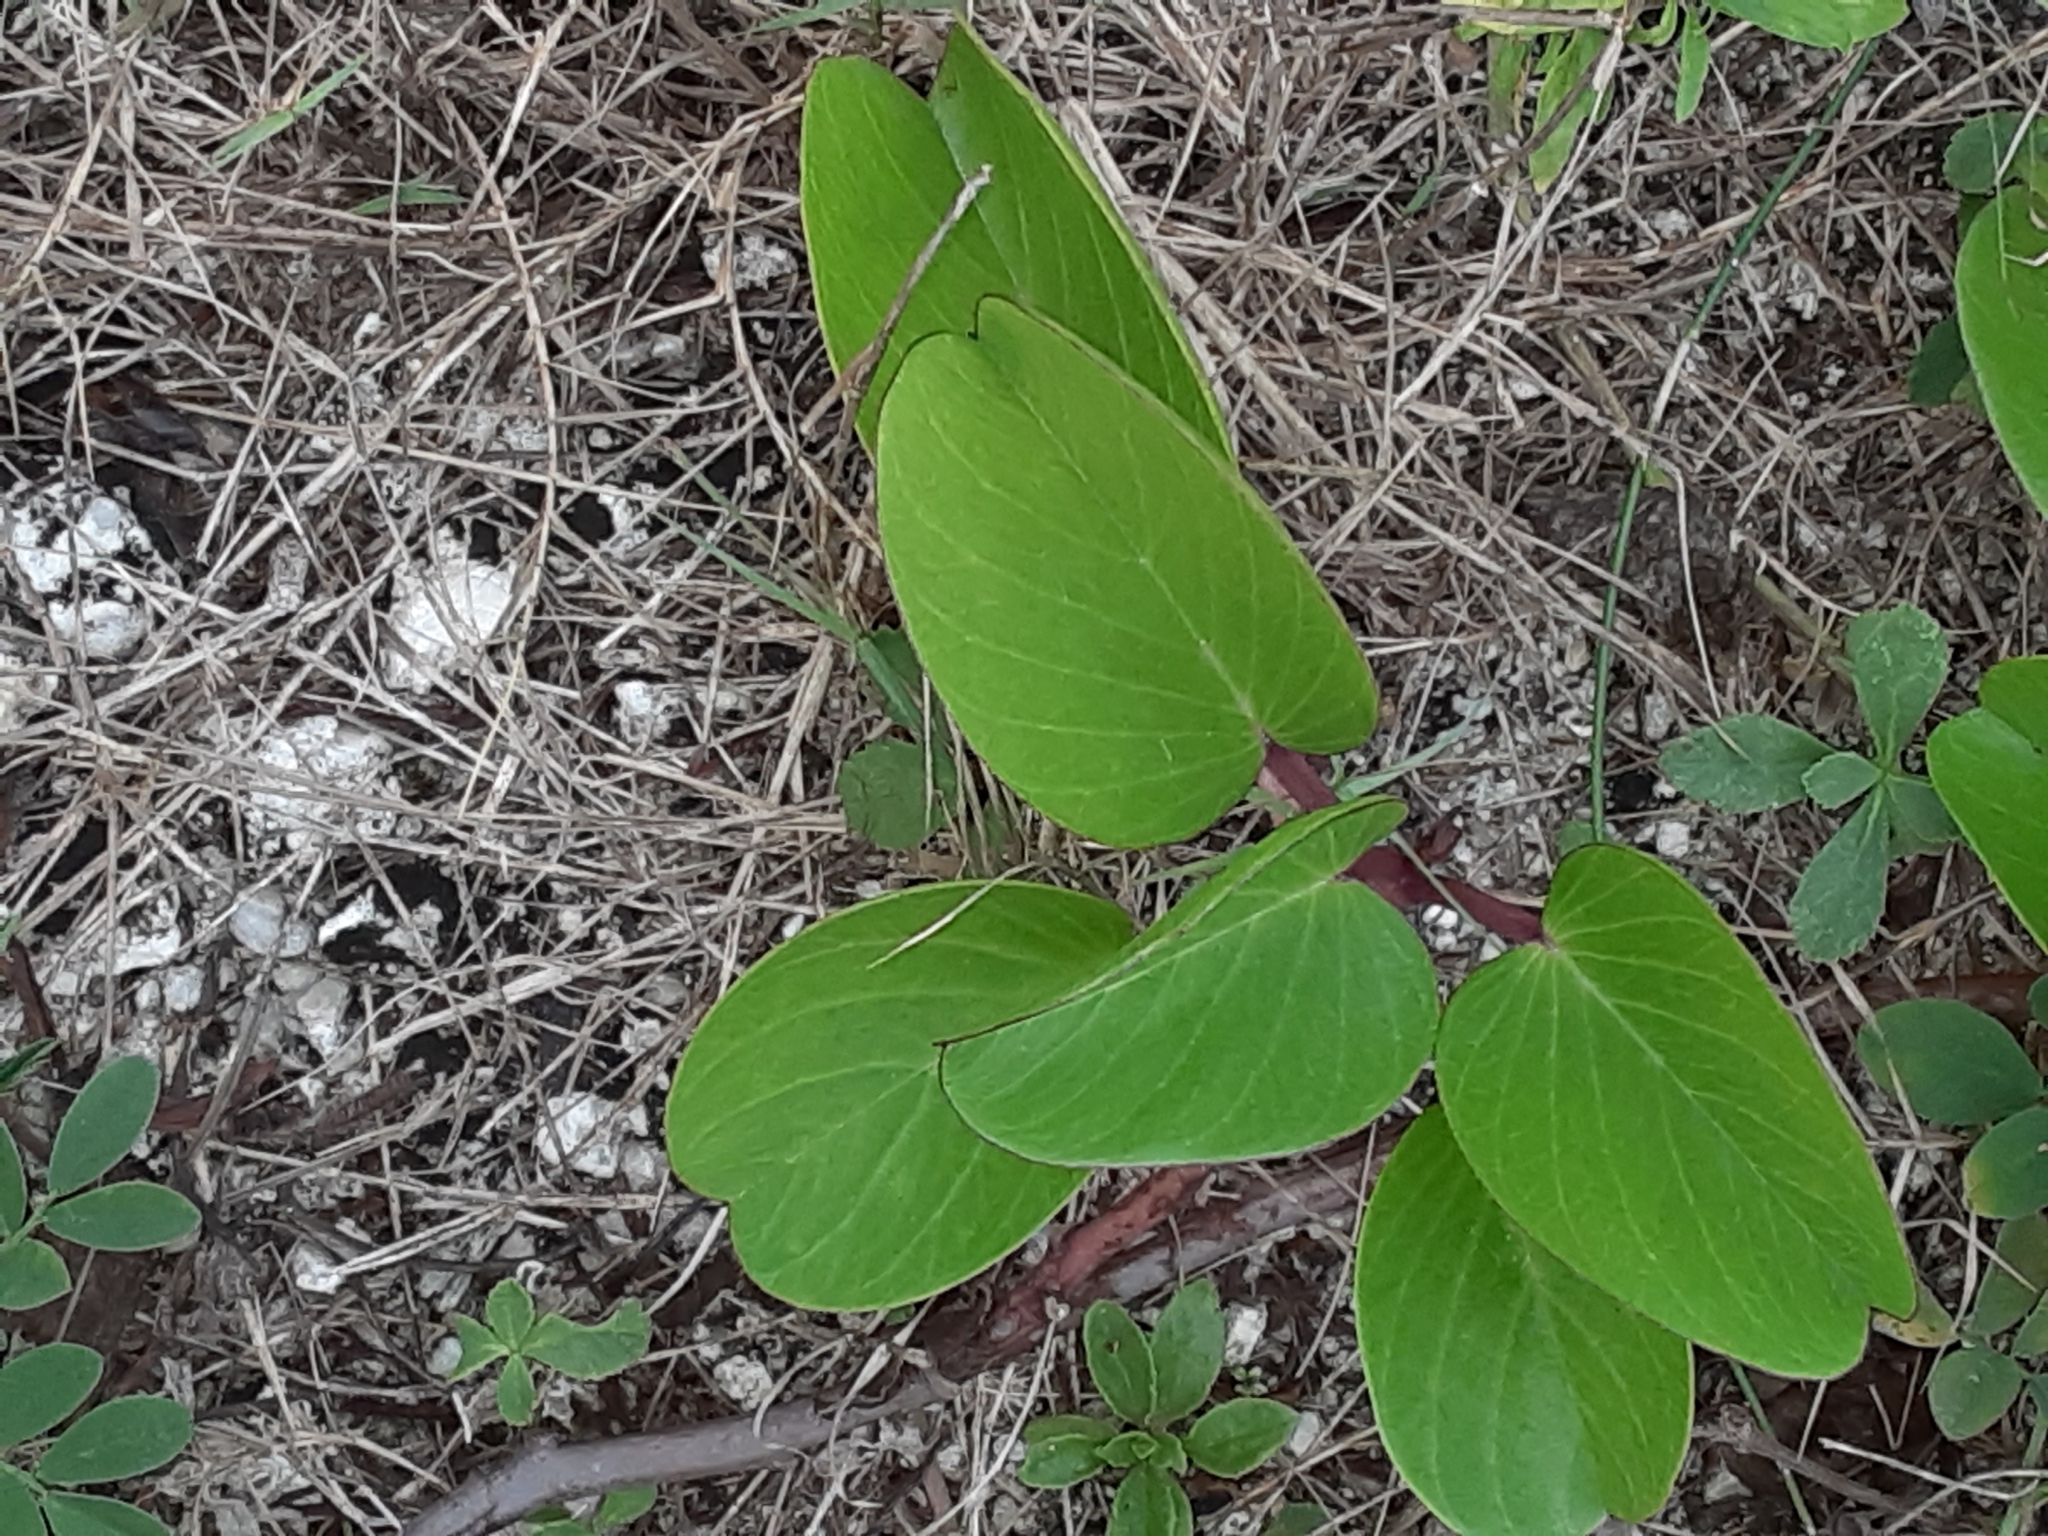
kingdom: Plantae
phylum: Tracheophyta
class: Magnoliopsida
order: Solanales
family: Convolvulaceae
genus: Ipomoea
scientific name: Ipomoea pes-caprae
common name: Beach morning glory
